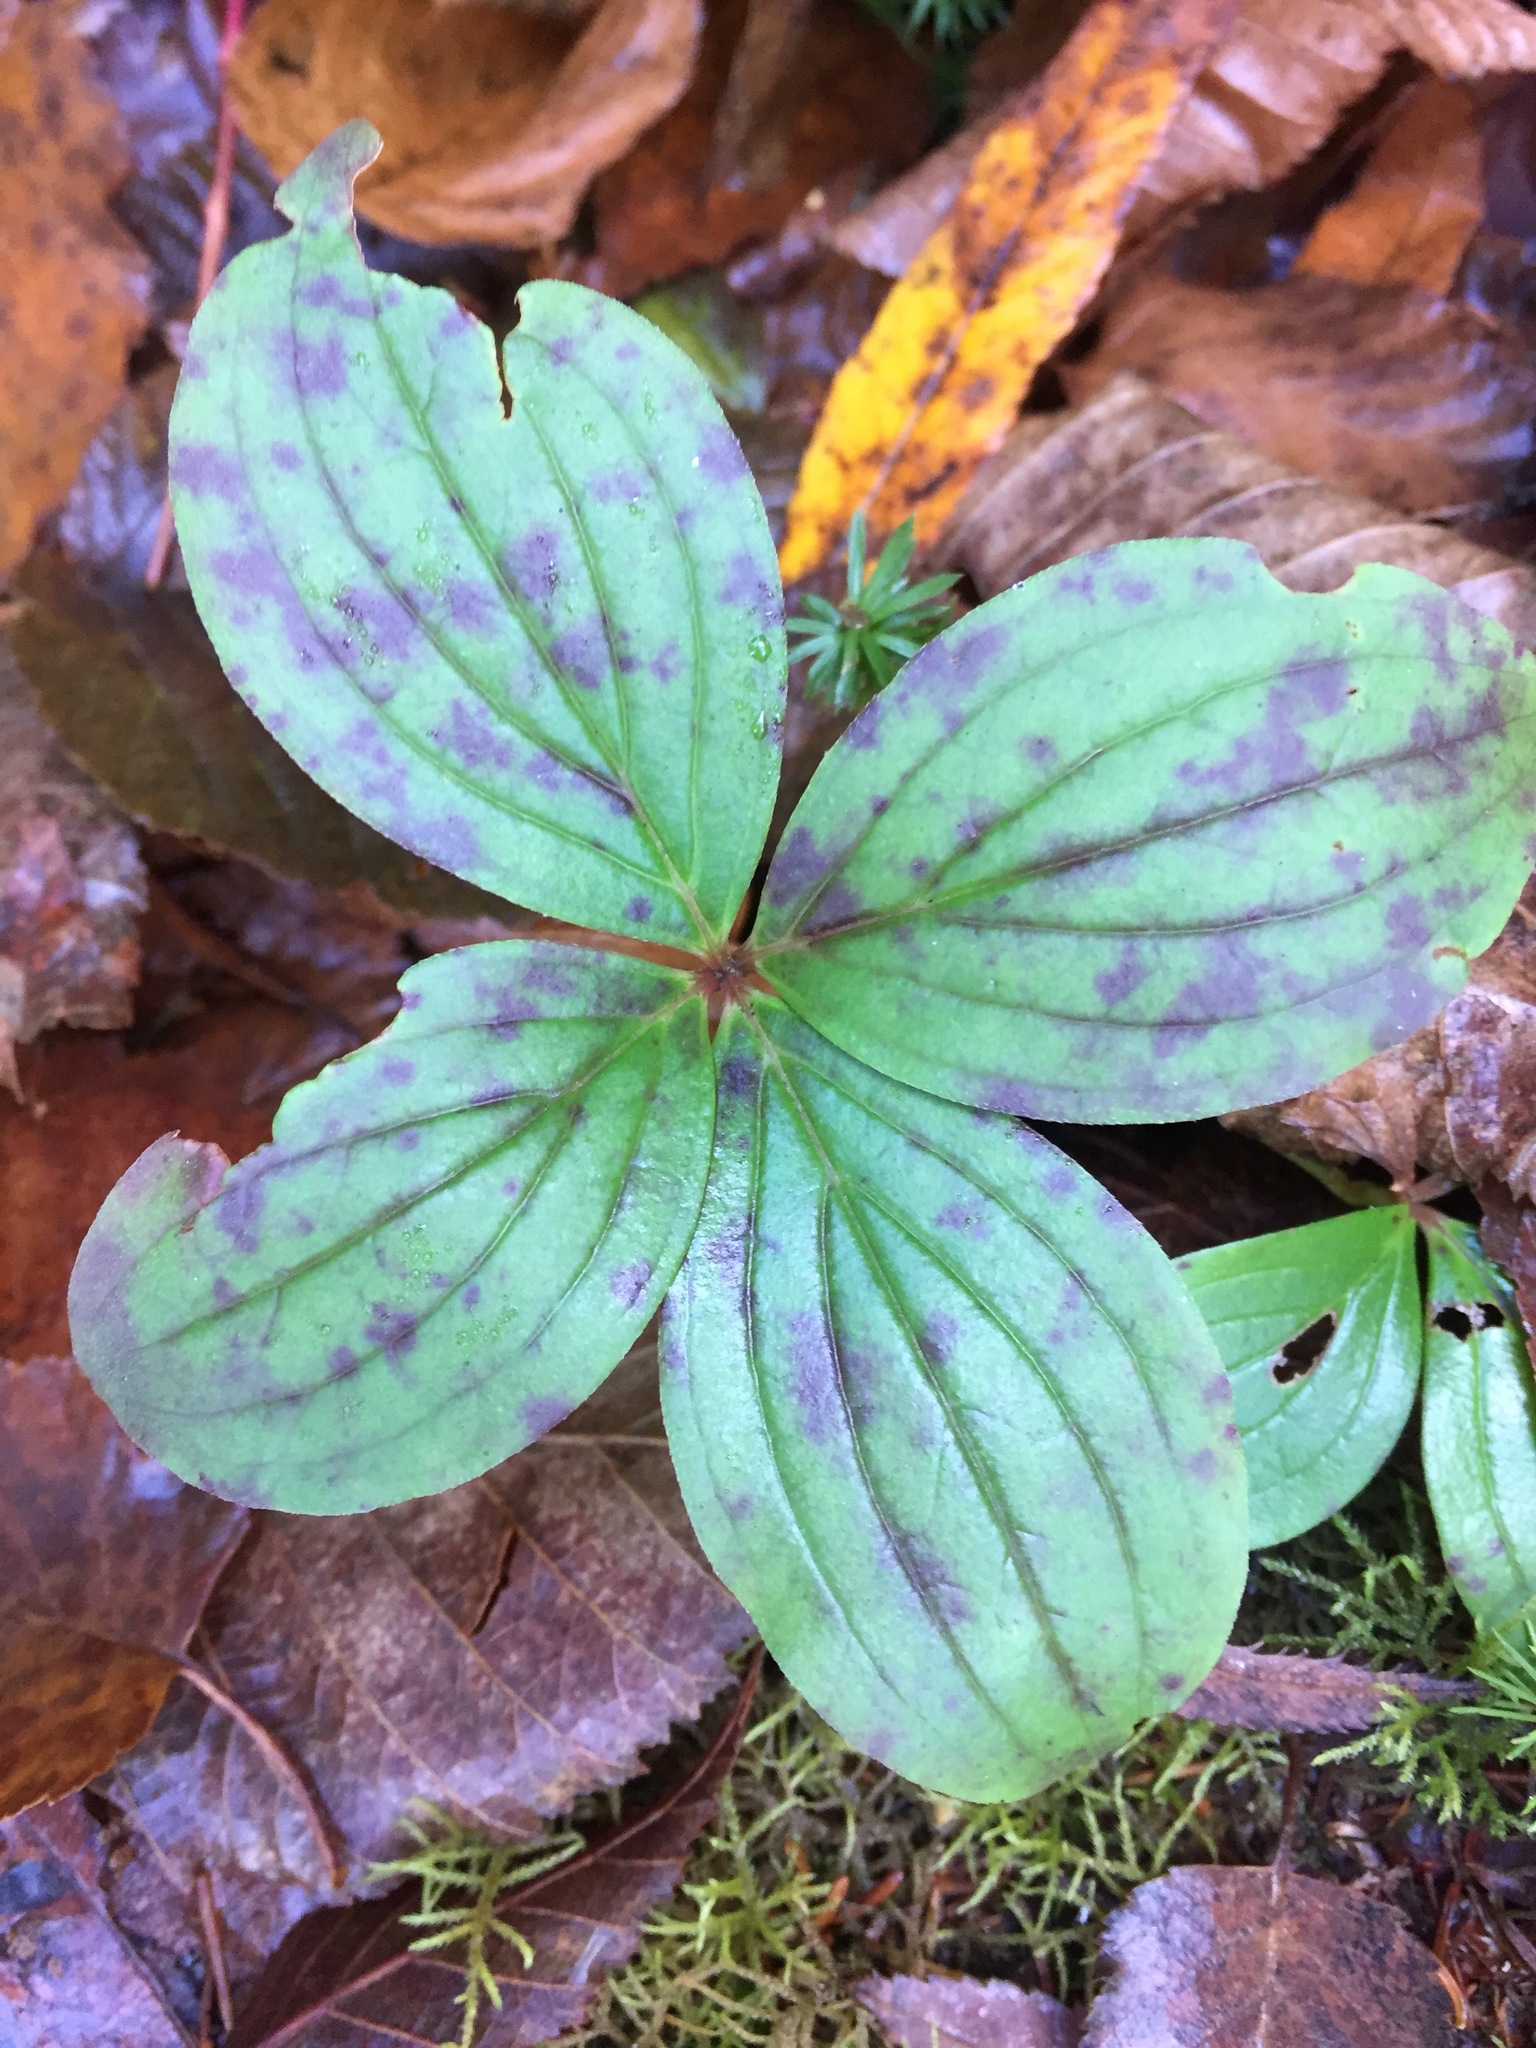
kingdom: Plantae
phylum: Tracheophyta
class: Magnoliopsida
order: Cornales
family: Cornaceae
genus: Cornus
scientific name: Cornus canadensis
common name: Creeping dogwood
